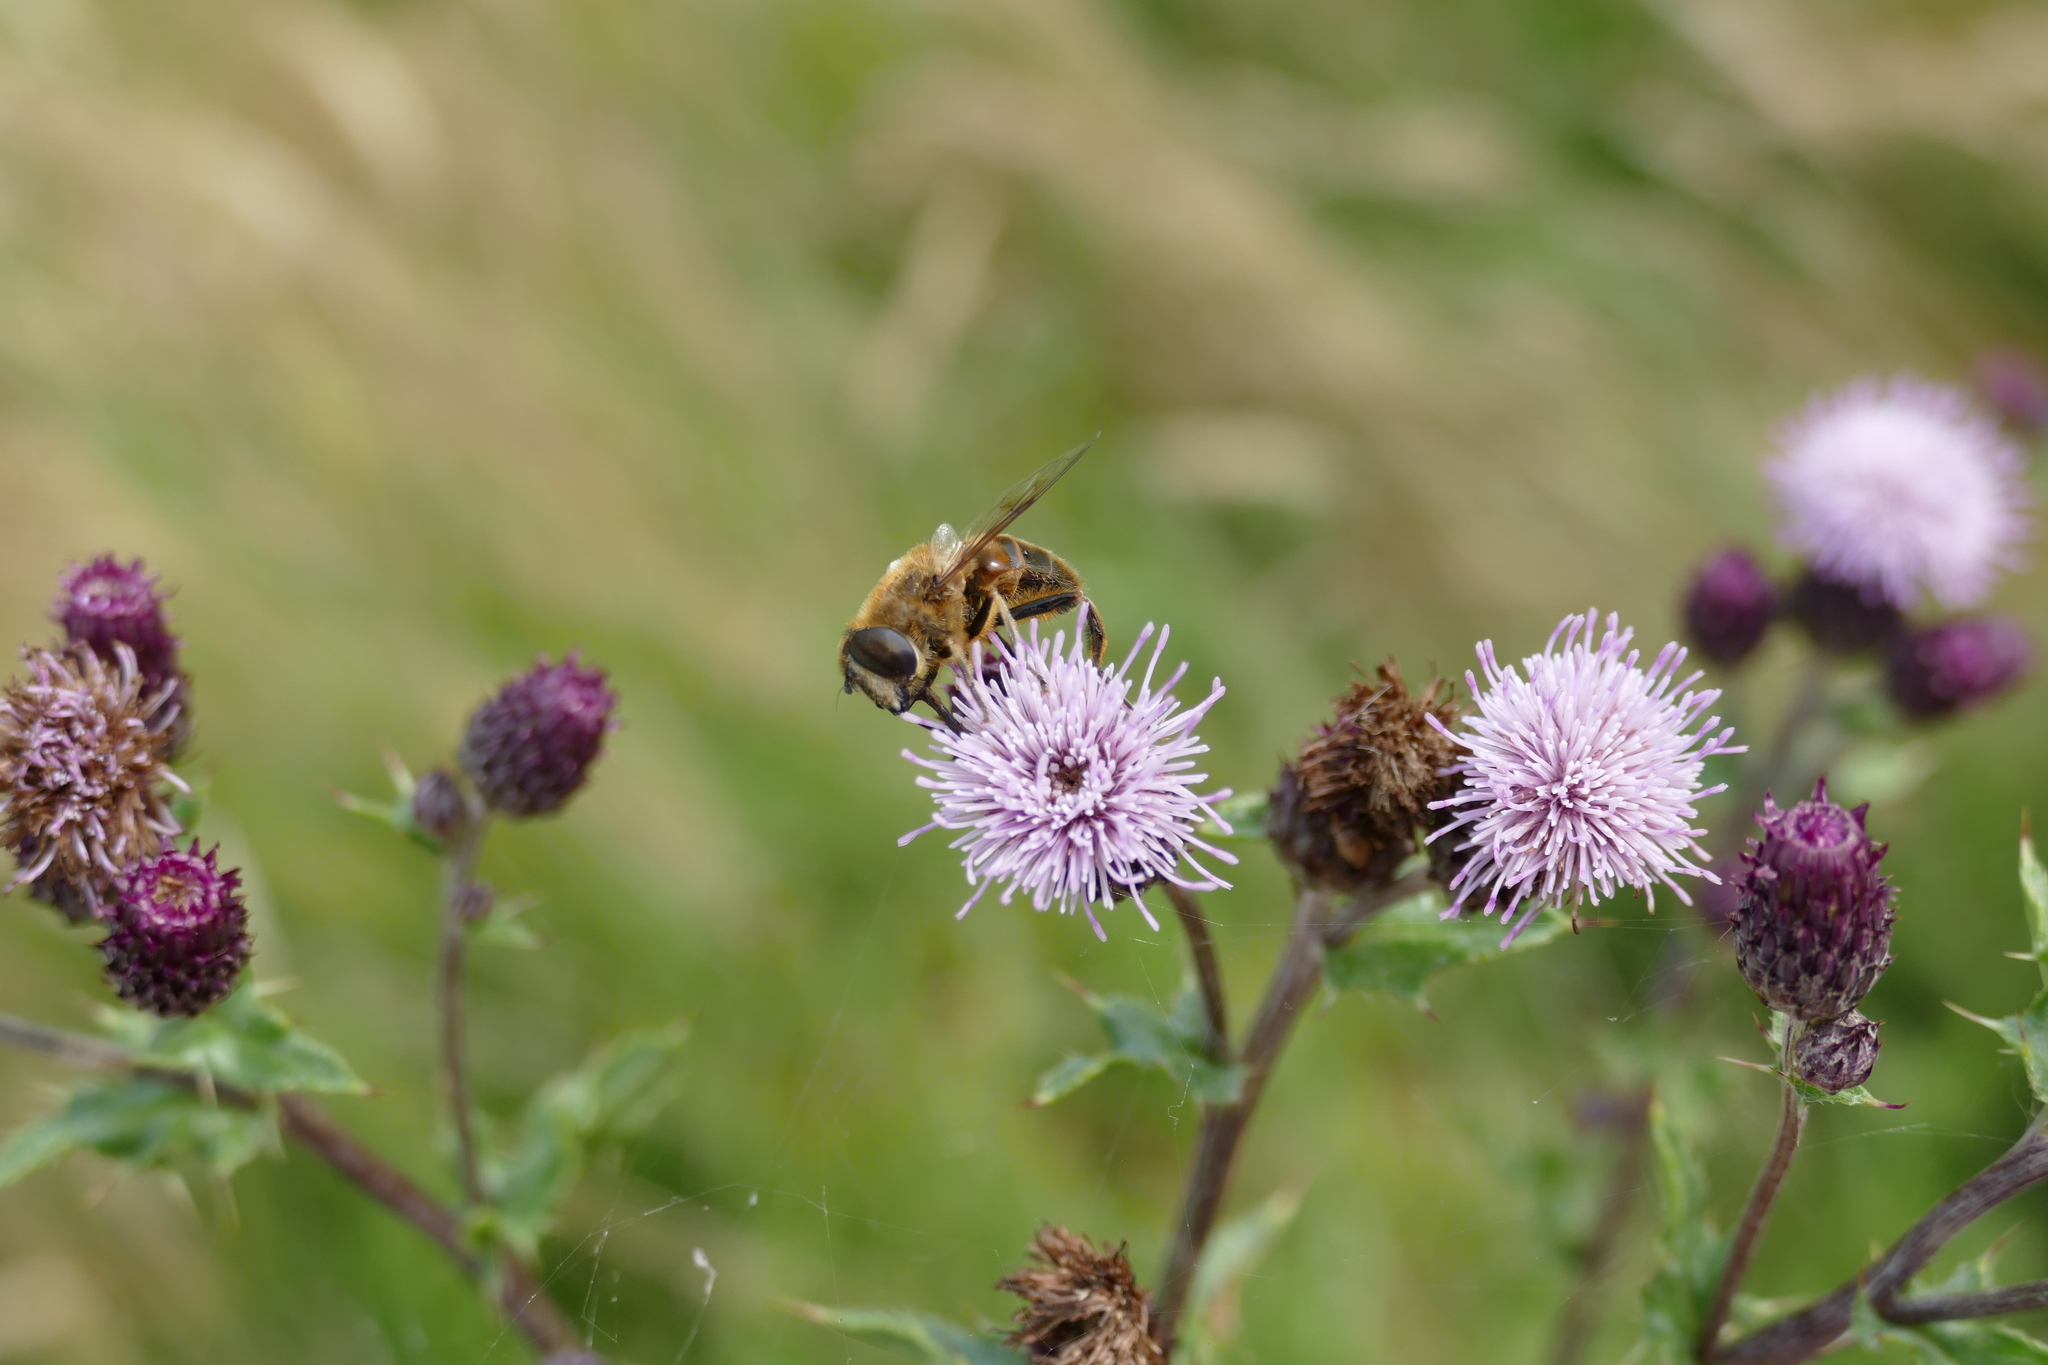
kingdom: Animalia
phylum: Arthropoda
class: Insecta
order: Diptera
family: Syrphidae
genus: Eristalis
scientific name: Eristalis tenax
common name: Drone fly
